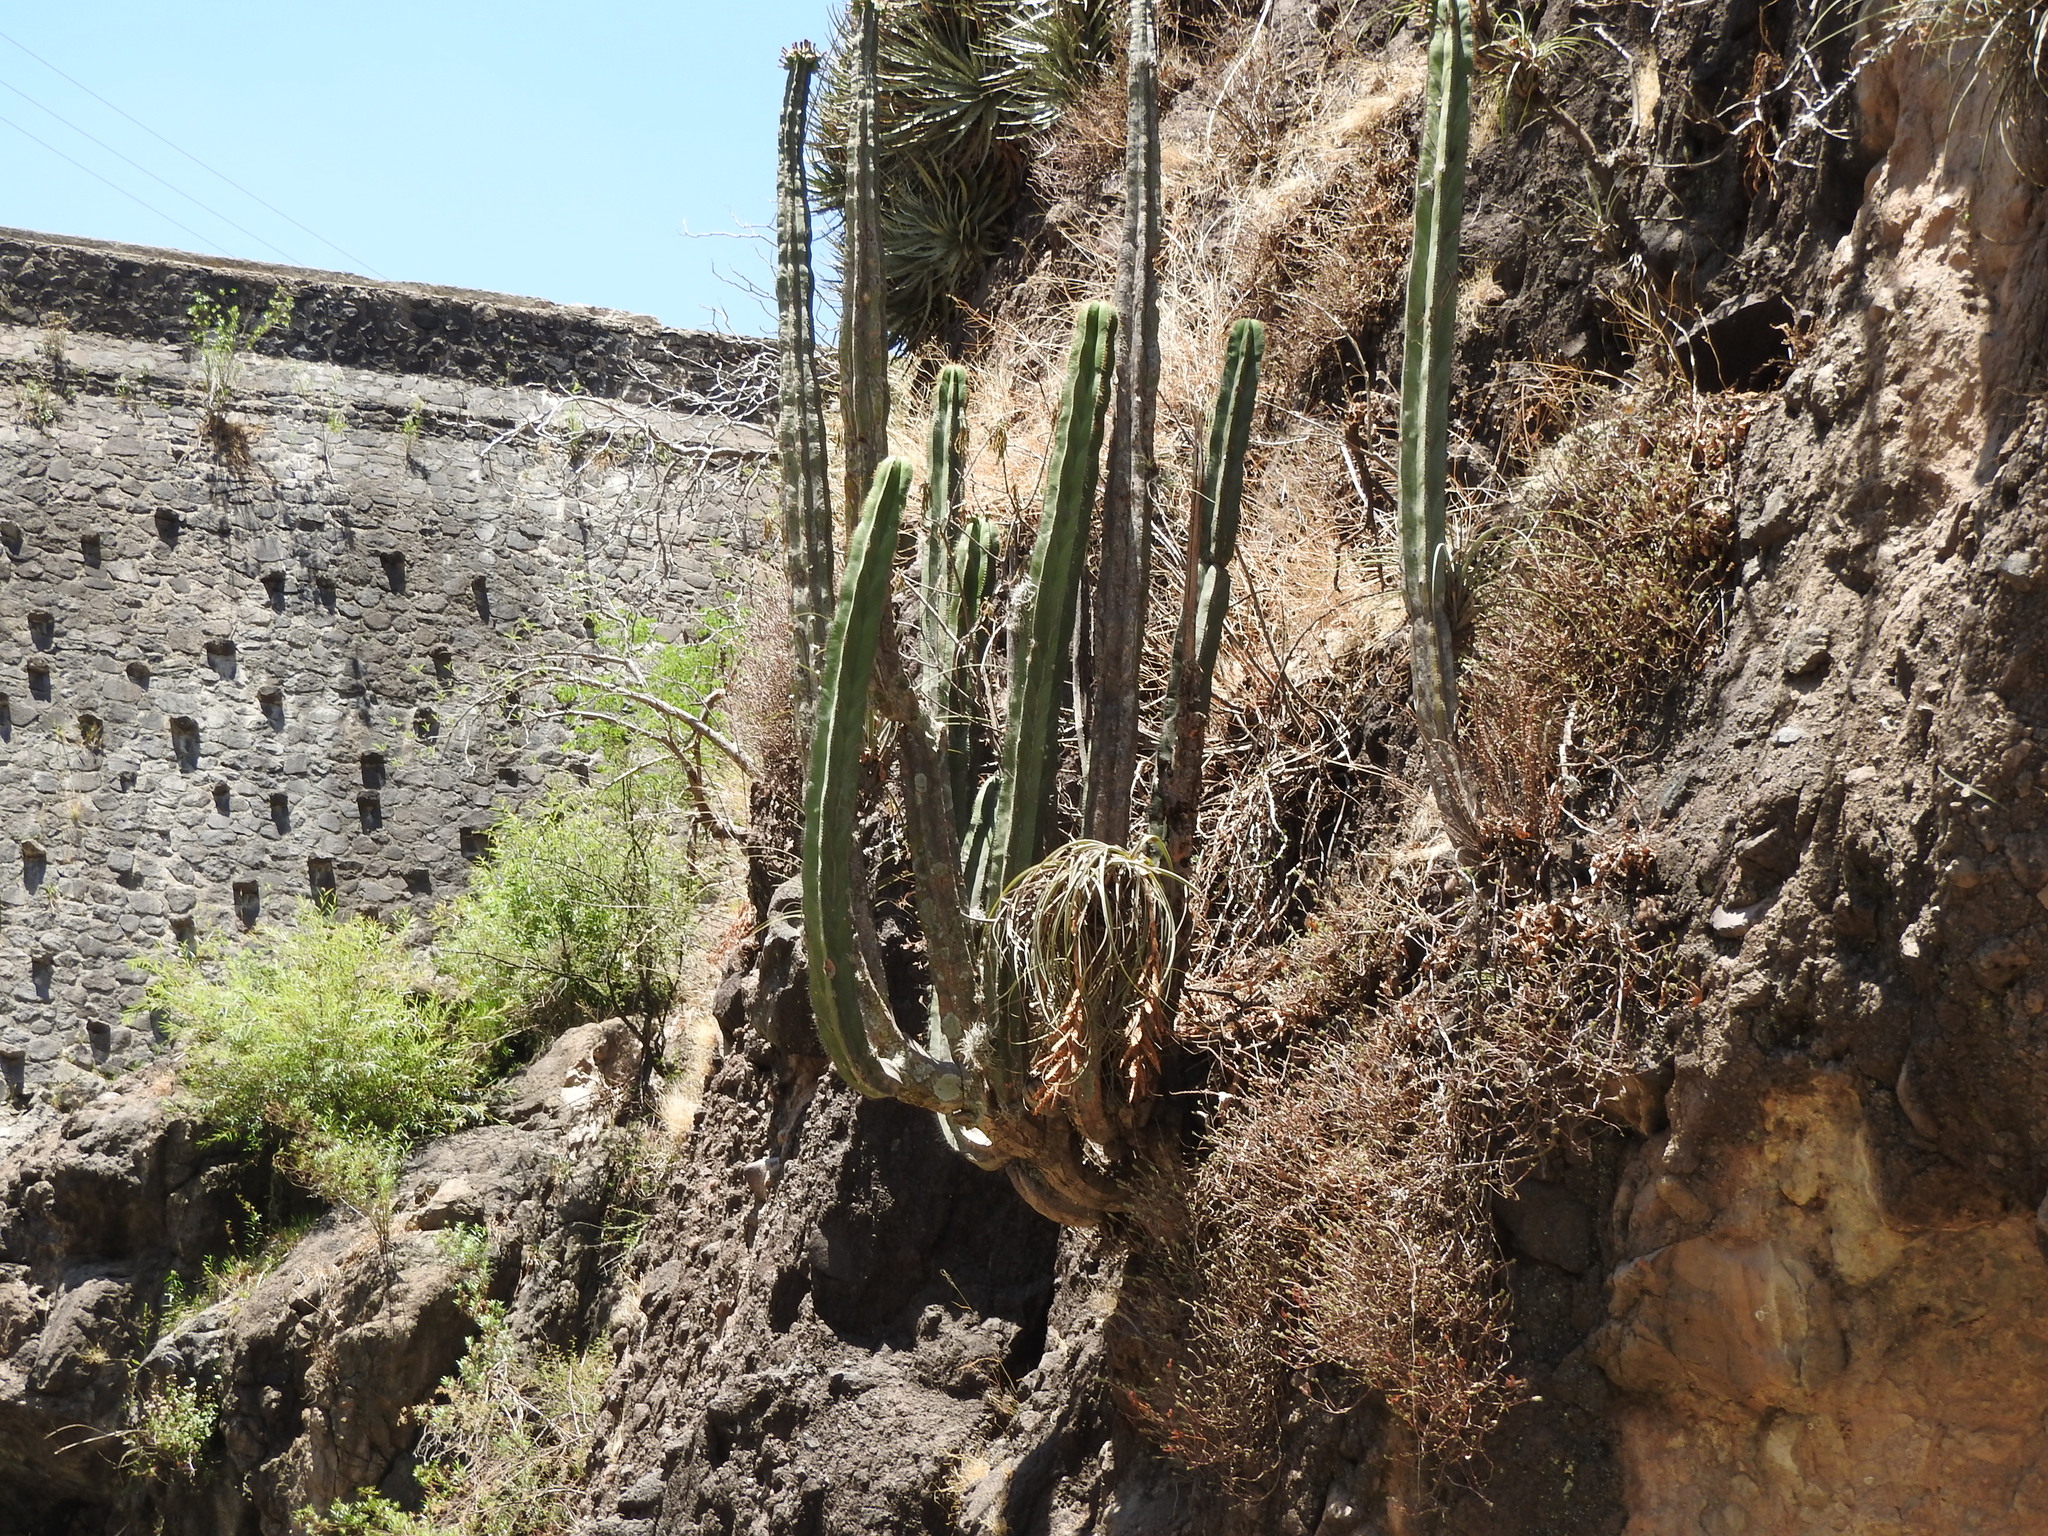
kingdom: Plantae
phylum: Tracheophyta
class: Magnoliopsida
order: Caryophyllales
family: Cactaceae
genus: Stenocereus
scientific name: Stenocereus dumortieri
